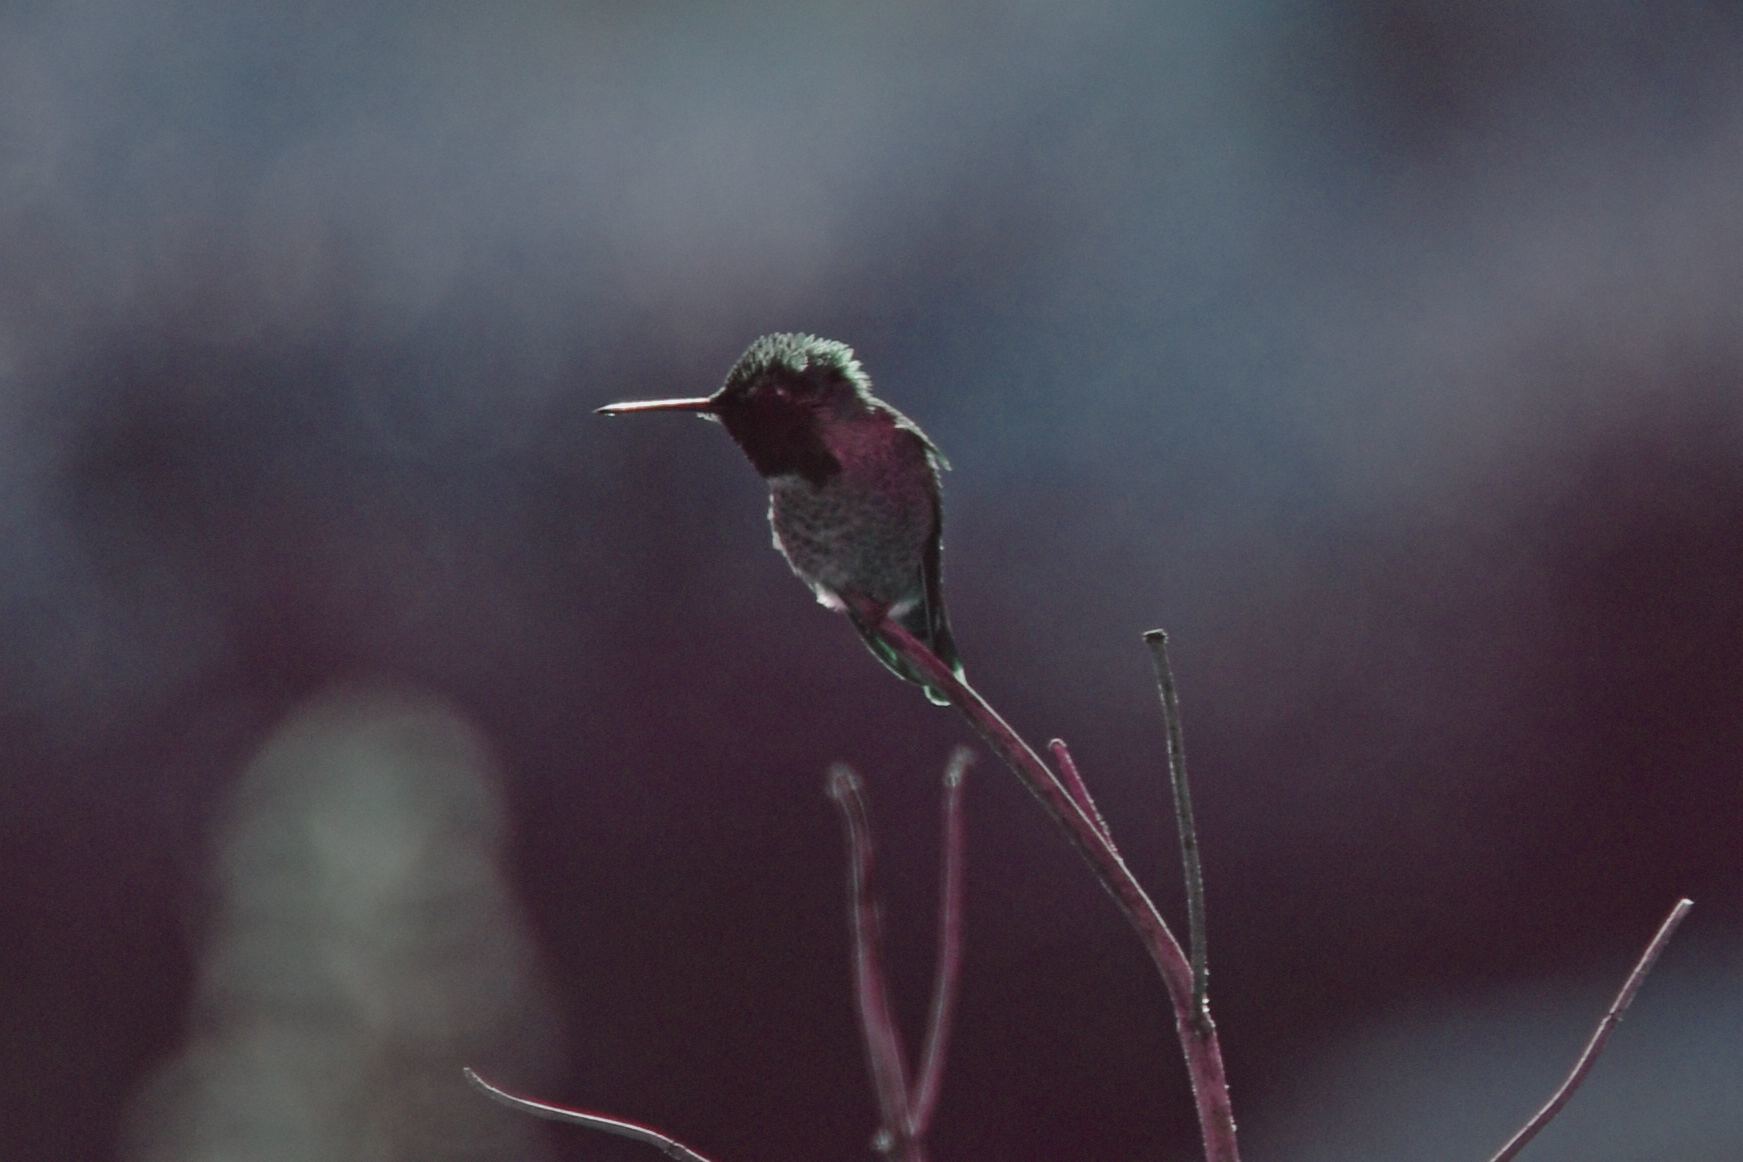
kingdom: Animalia
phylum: Chordata
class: Aves
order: Apodiformes
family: Trochilidae
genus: Calypte
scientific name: Calypte anna
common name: Anna's hummingbird
